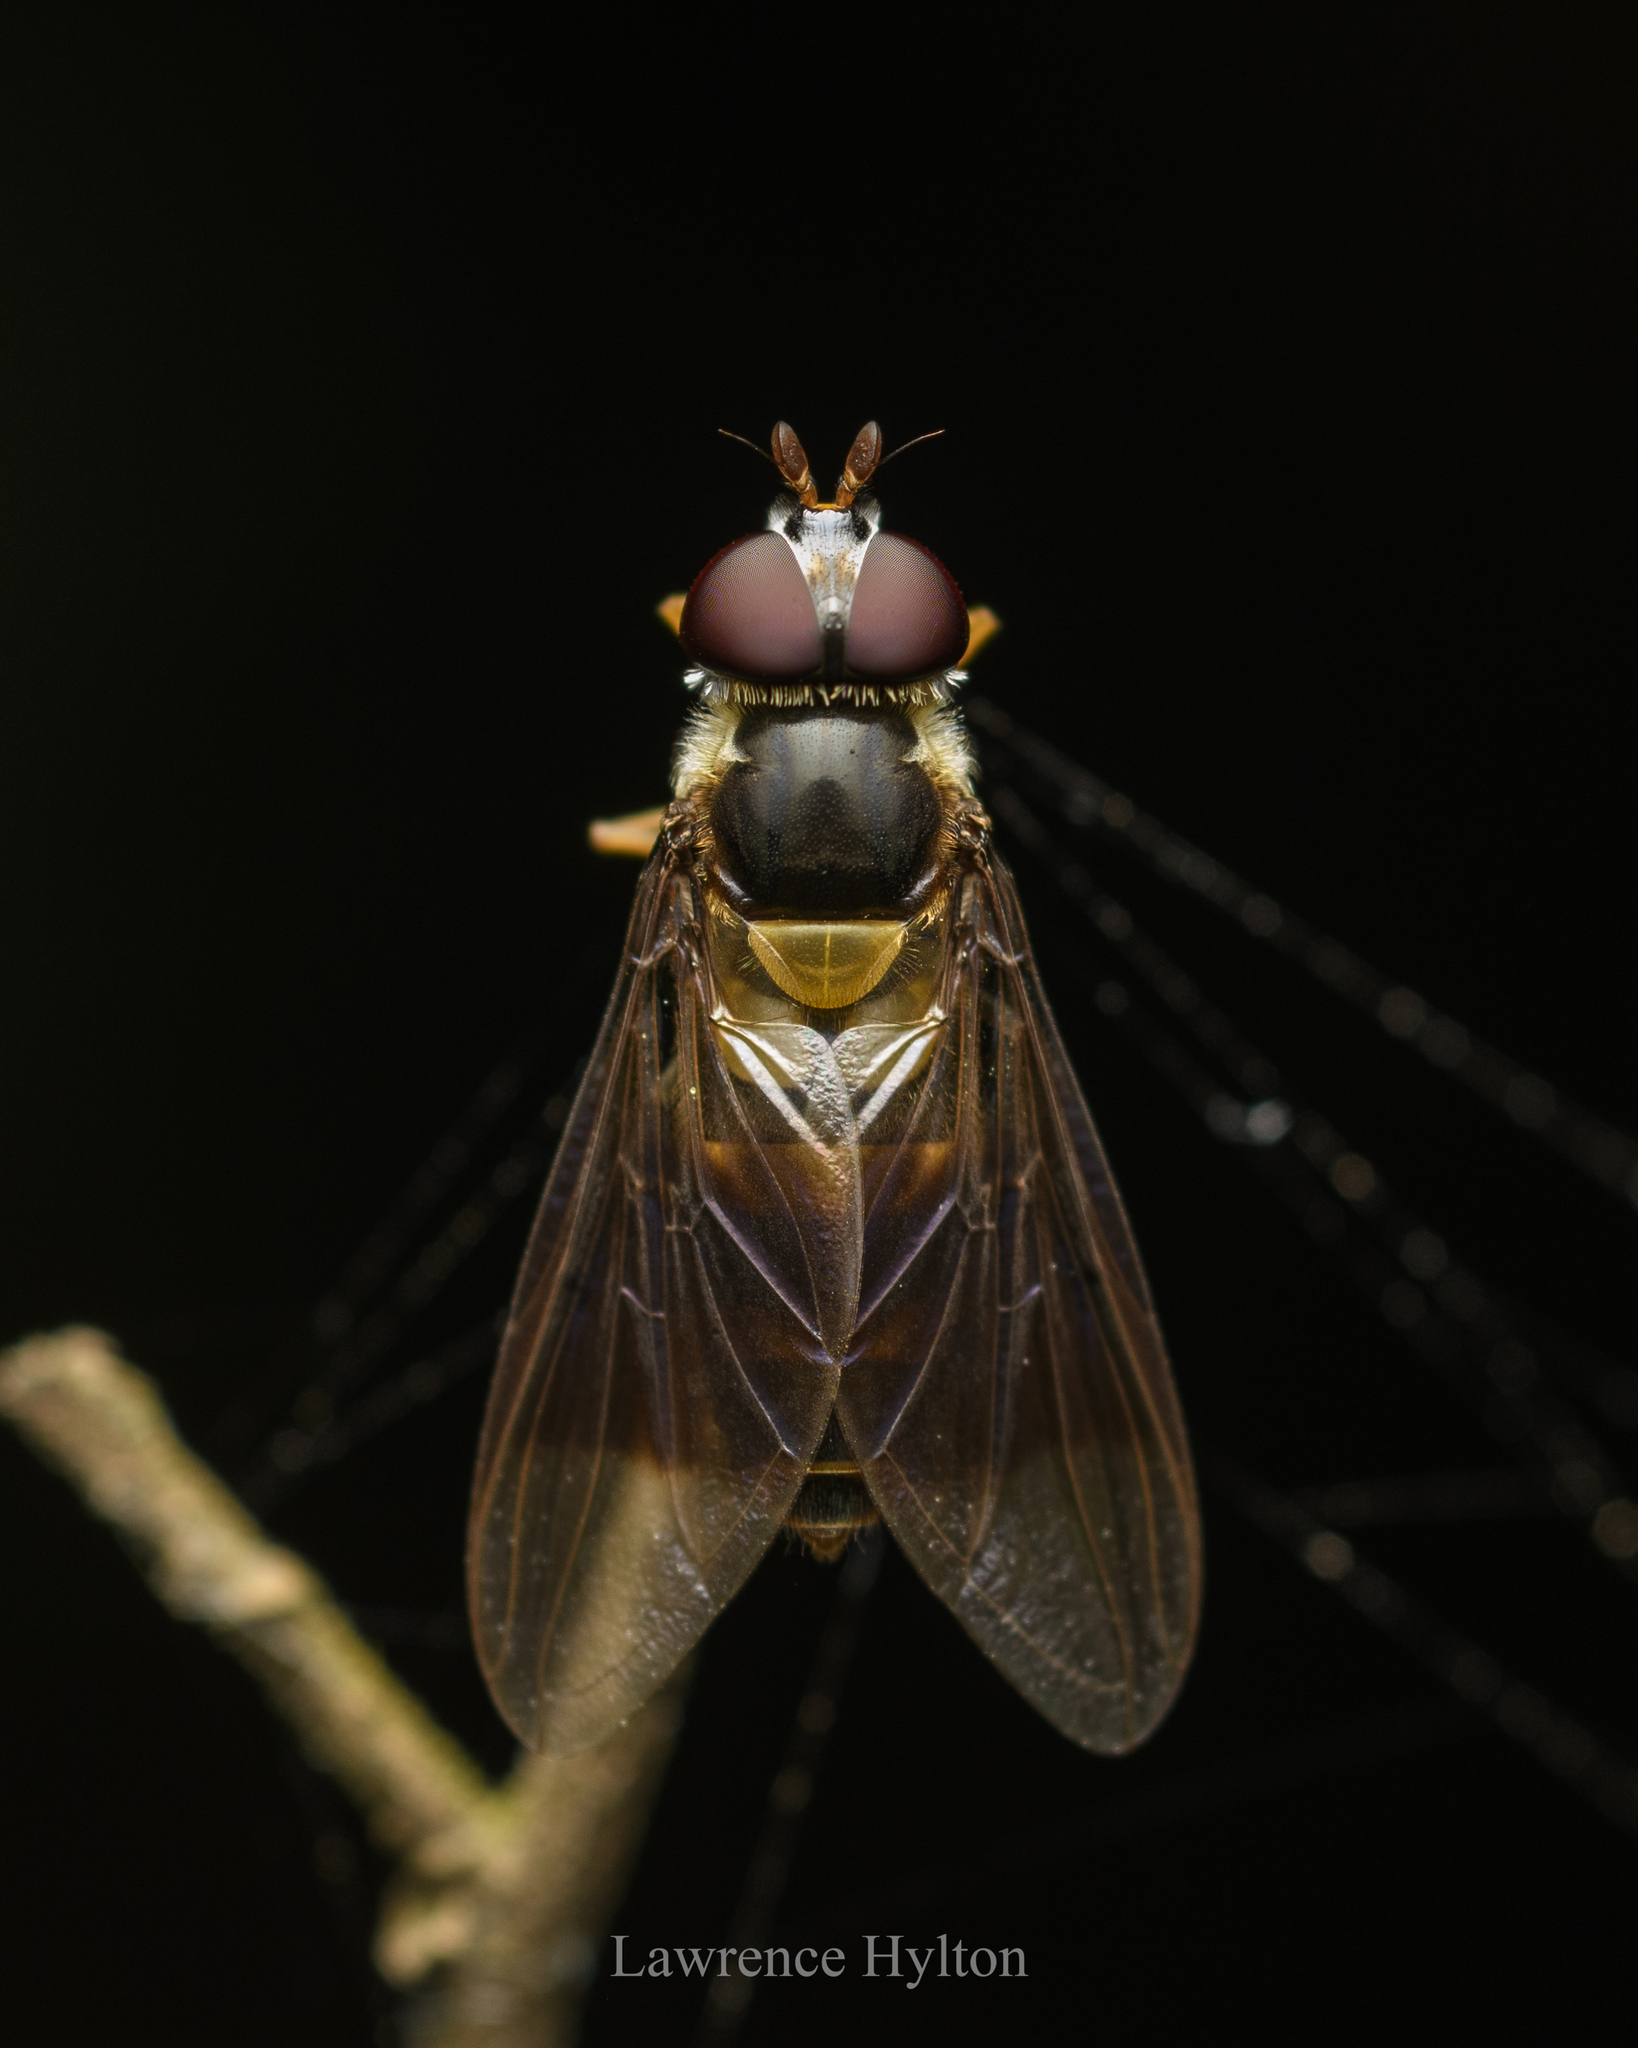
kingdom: Animalia
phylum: Arthropoda
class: Insecta
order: Diptera
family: Syrphidae
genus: Dideopsis
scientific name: Dideopsis aegrota
